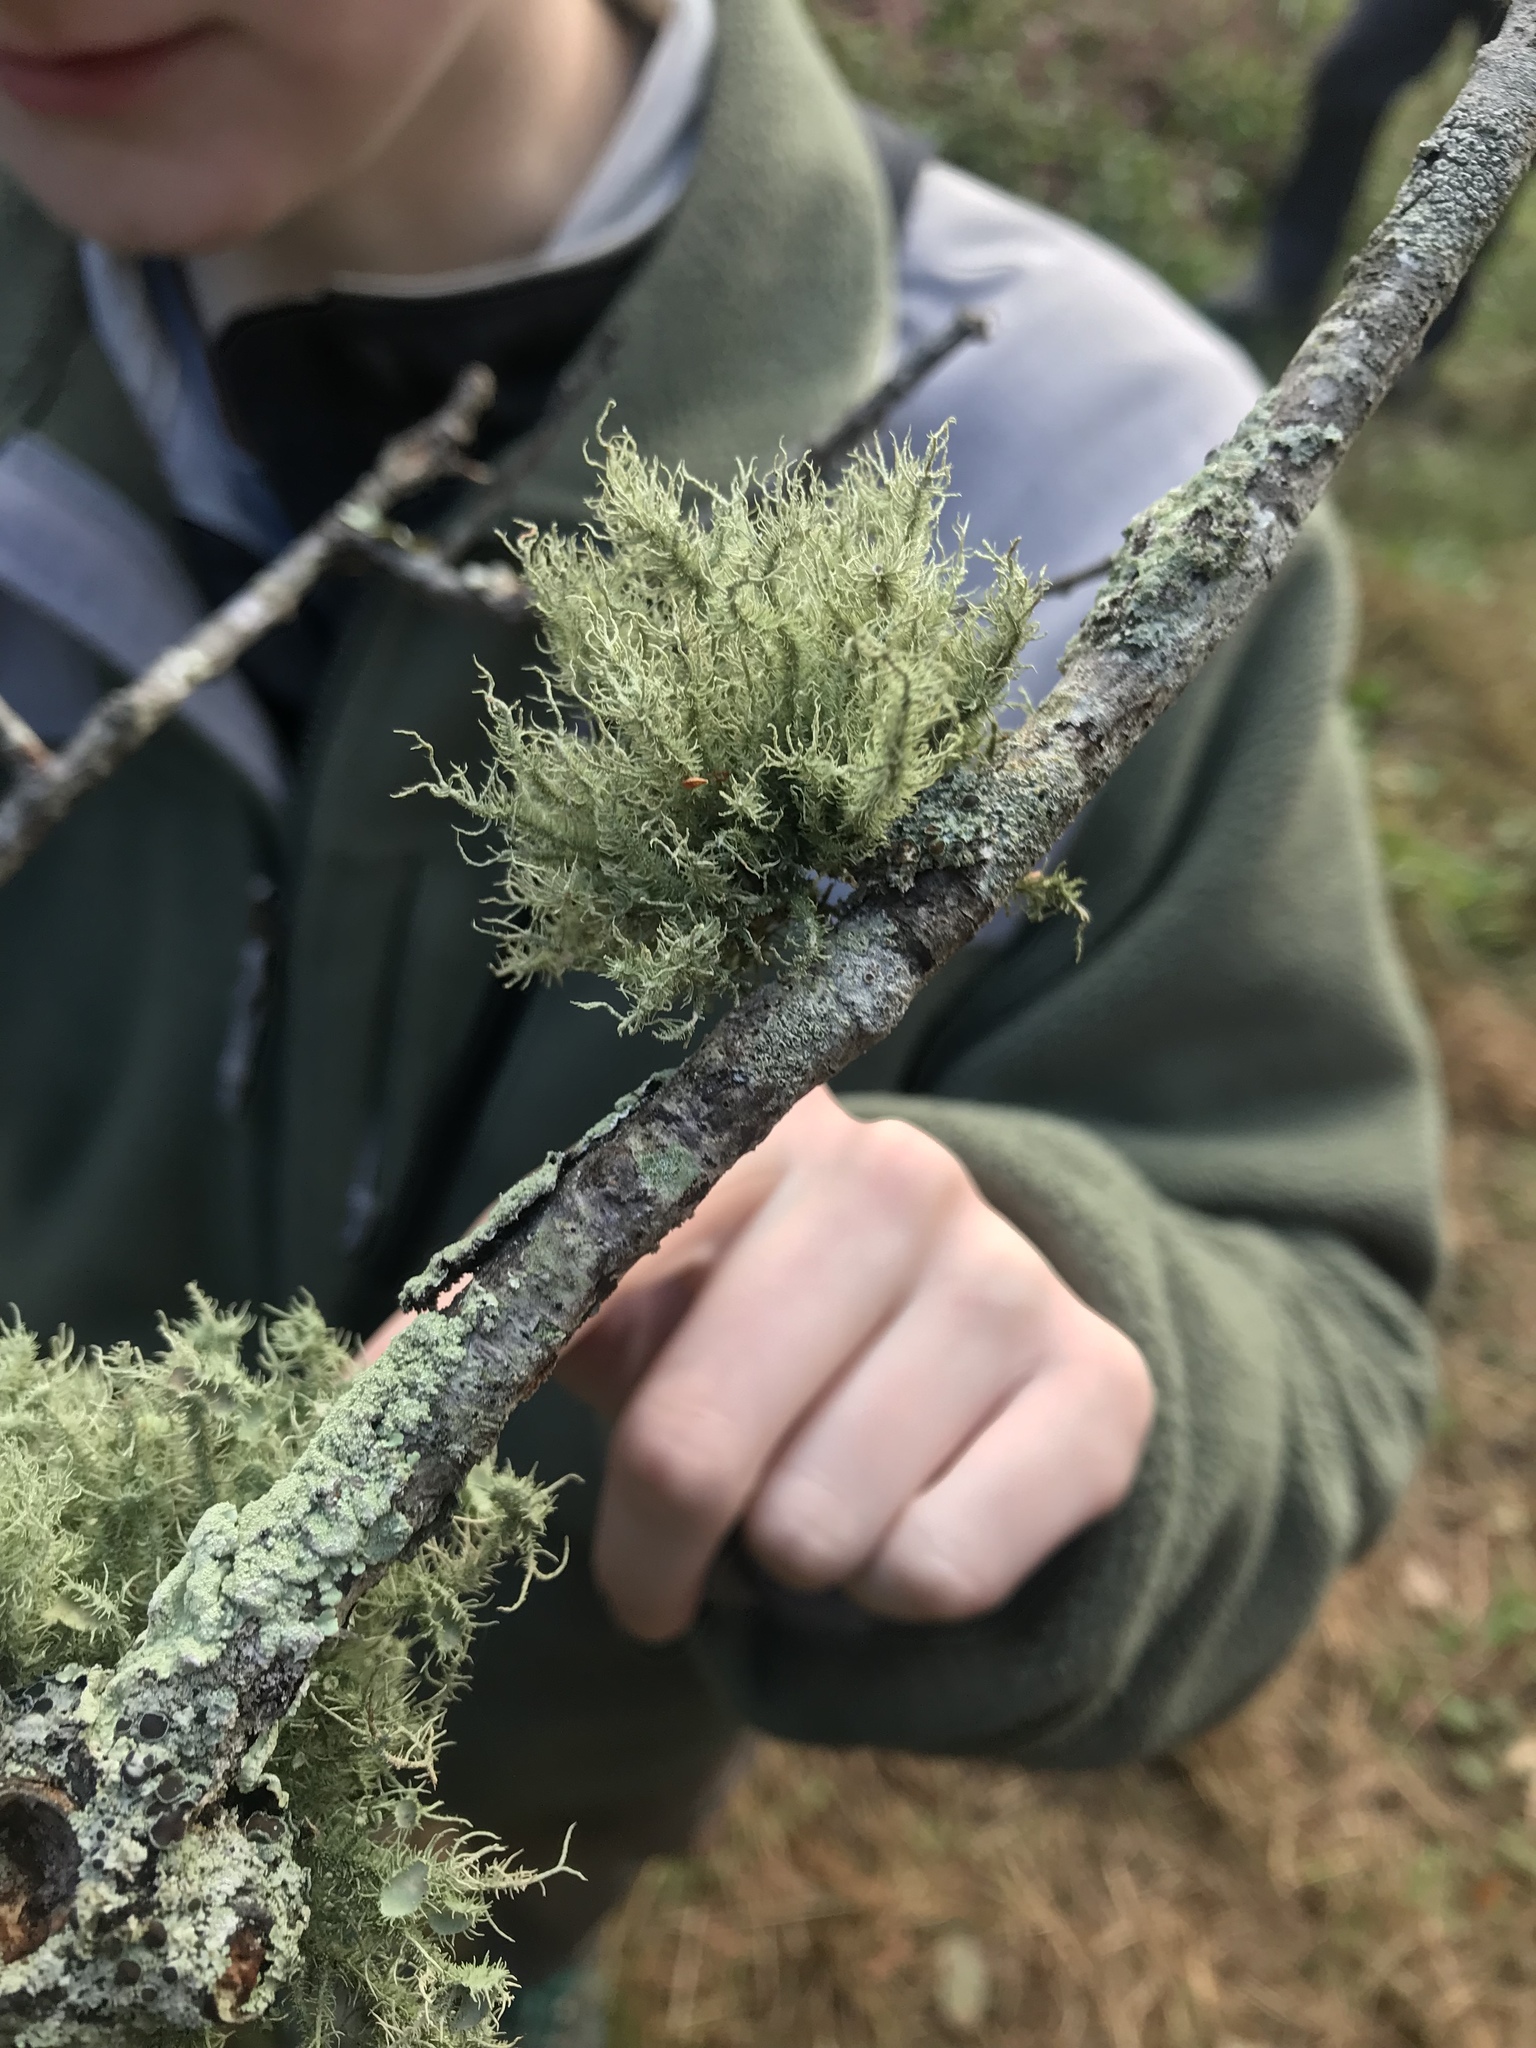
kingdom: Fungi
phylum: Ascomycota
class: Lecanoromycetes
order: Lecanorales
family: Parmeliaceae
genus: Usnea
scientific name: Usnea strigosa
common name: Bushy beard lichen
